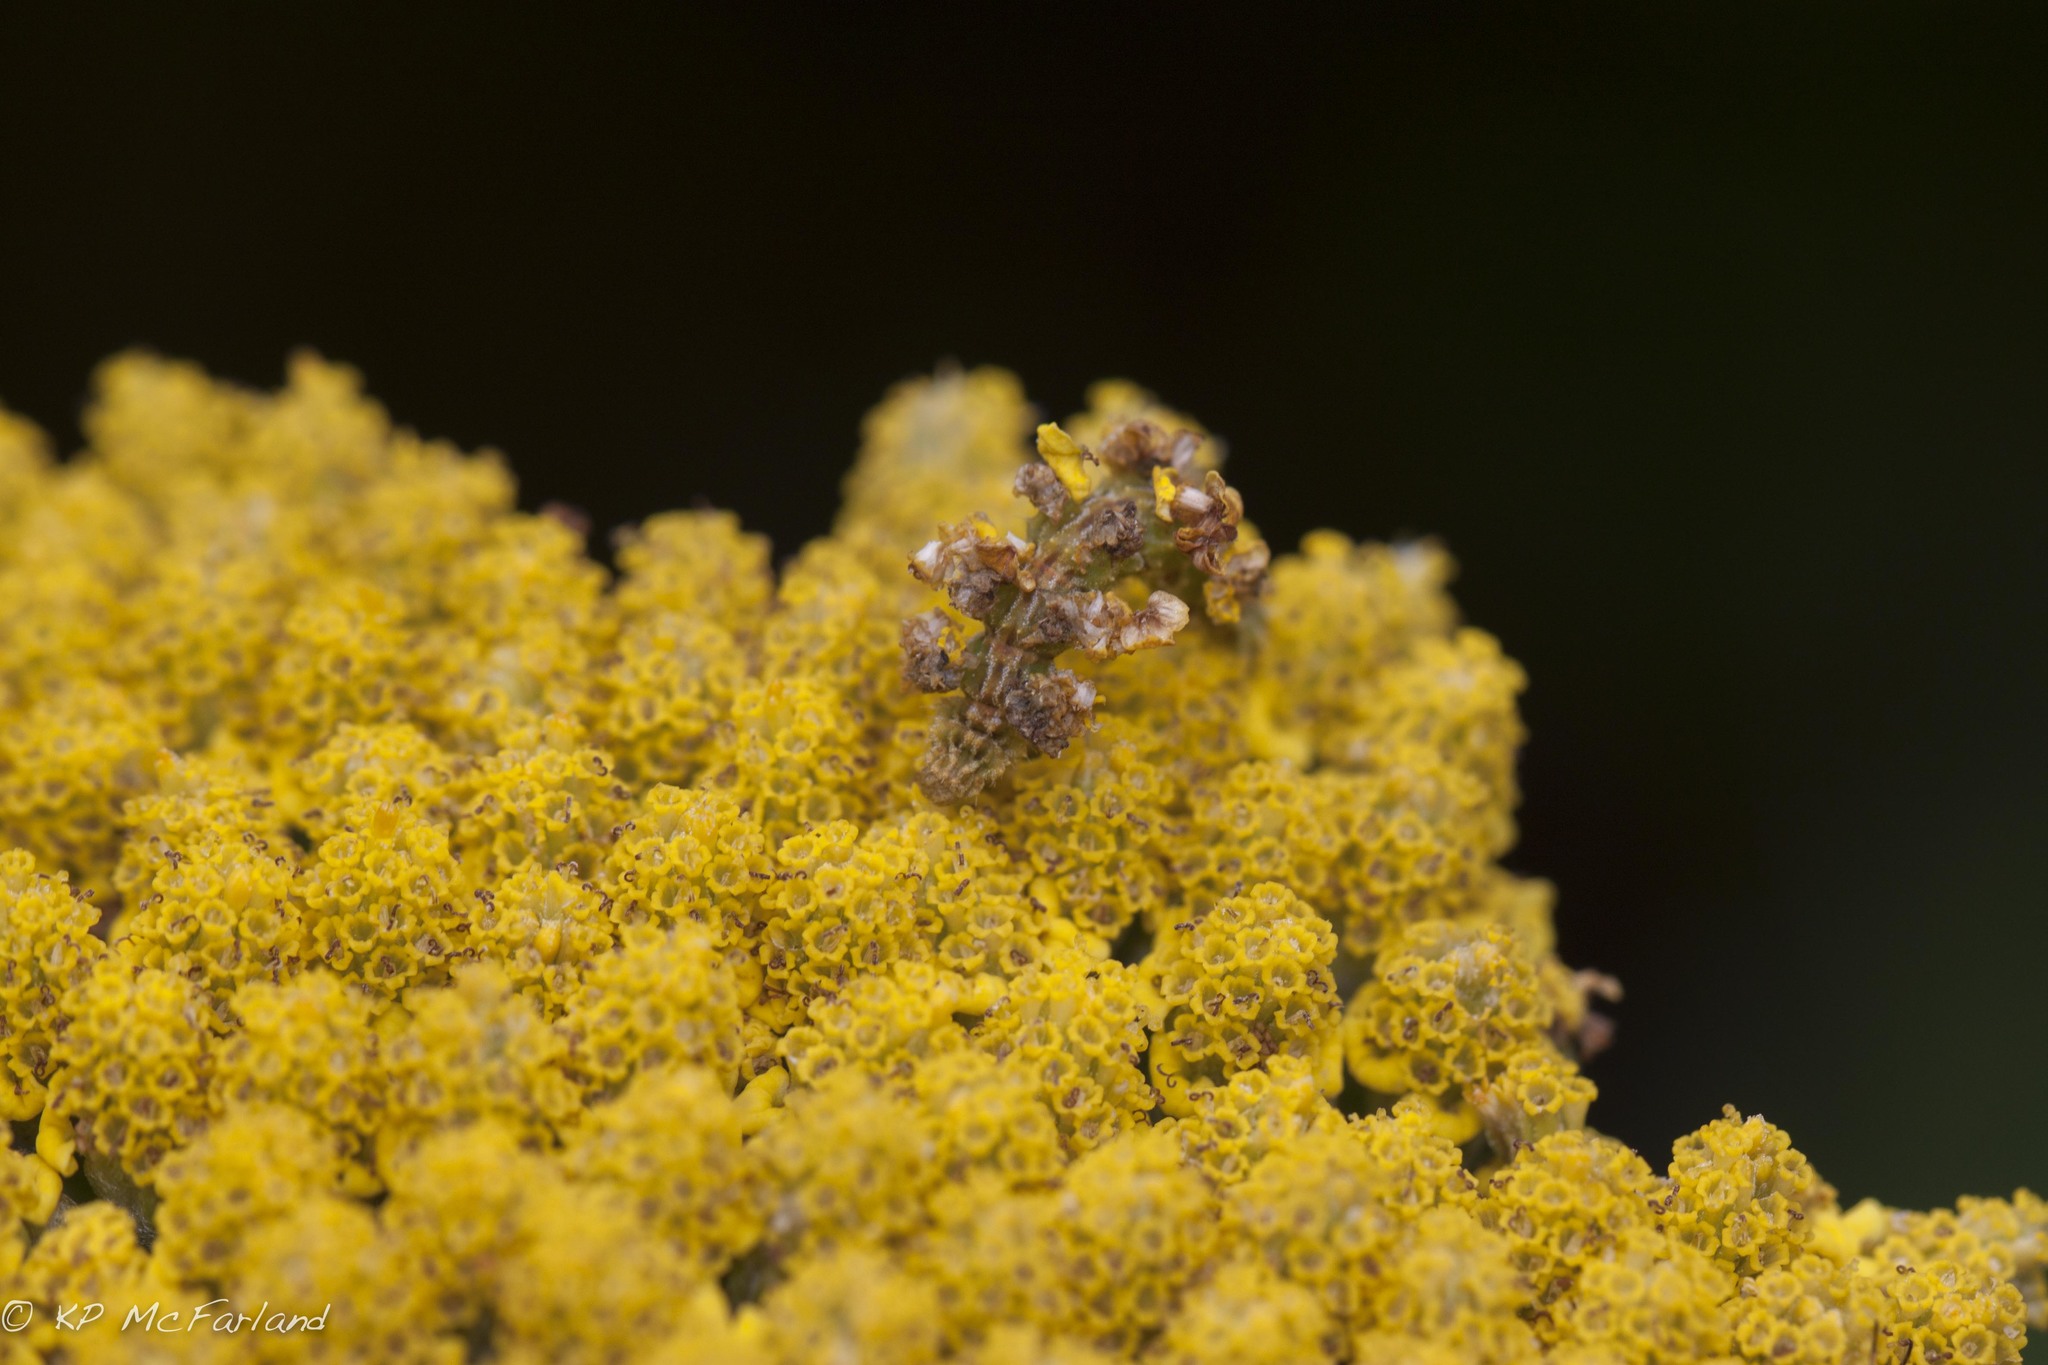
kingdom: Animalia
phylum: Arthropoda
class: Insecta
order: Lepidoptera
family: Geometridae
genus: Synchlora
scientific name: Synchlora aerata
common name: Wavy-lined emerald
